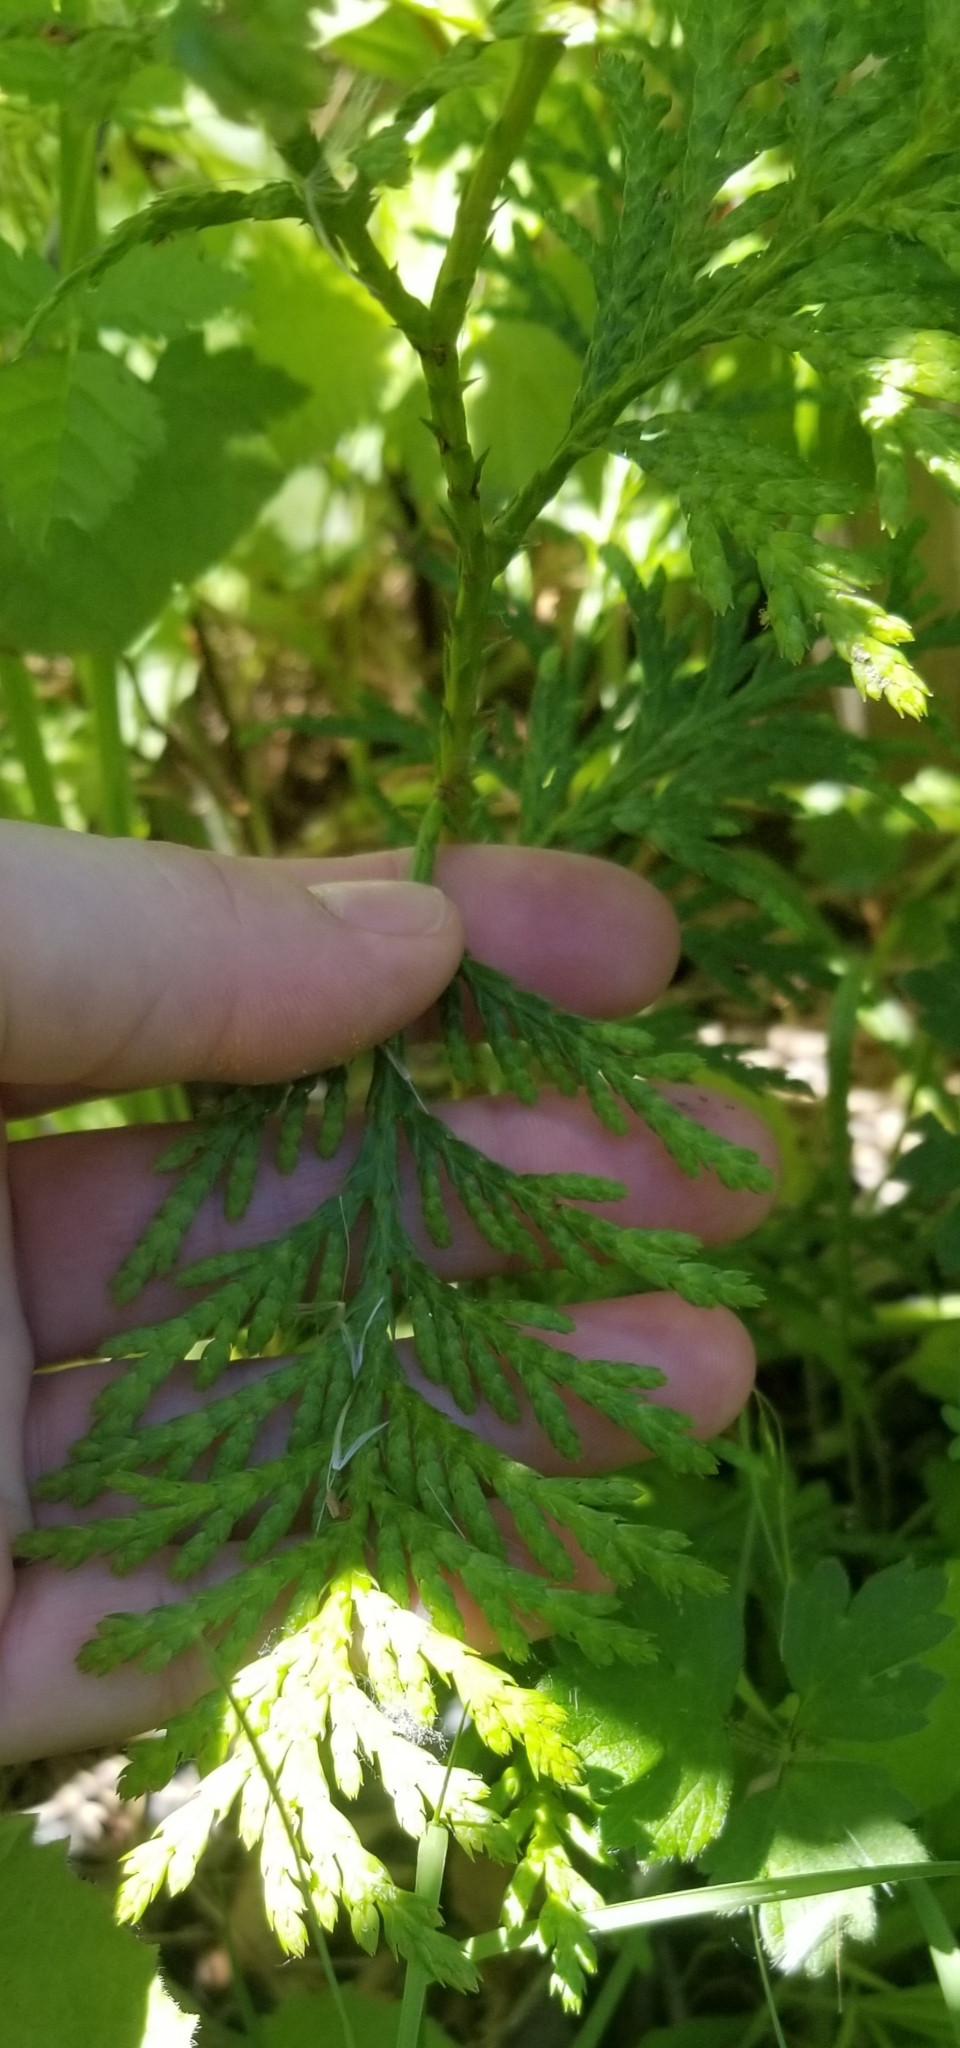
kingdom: Plantae
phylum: Tracheophyta
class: Pinopsida
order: Pinales
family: Cupressaceae
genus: Thuja
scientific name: Thuja plicata
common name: Western red-cedar
